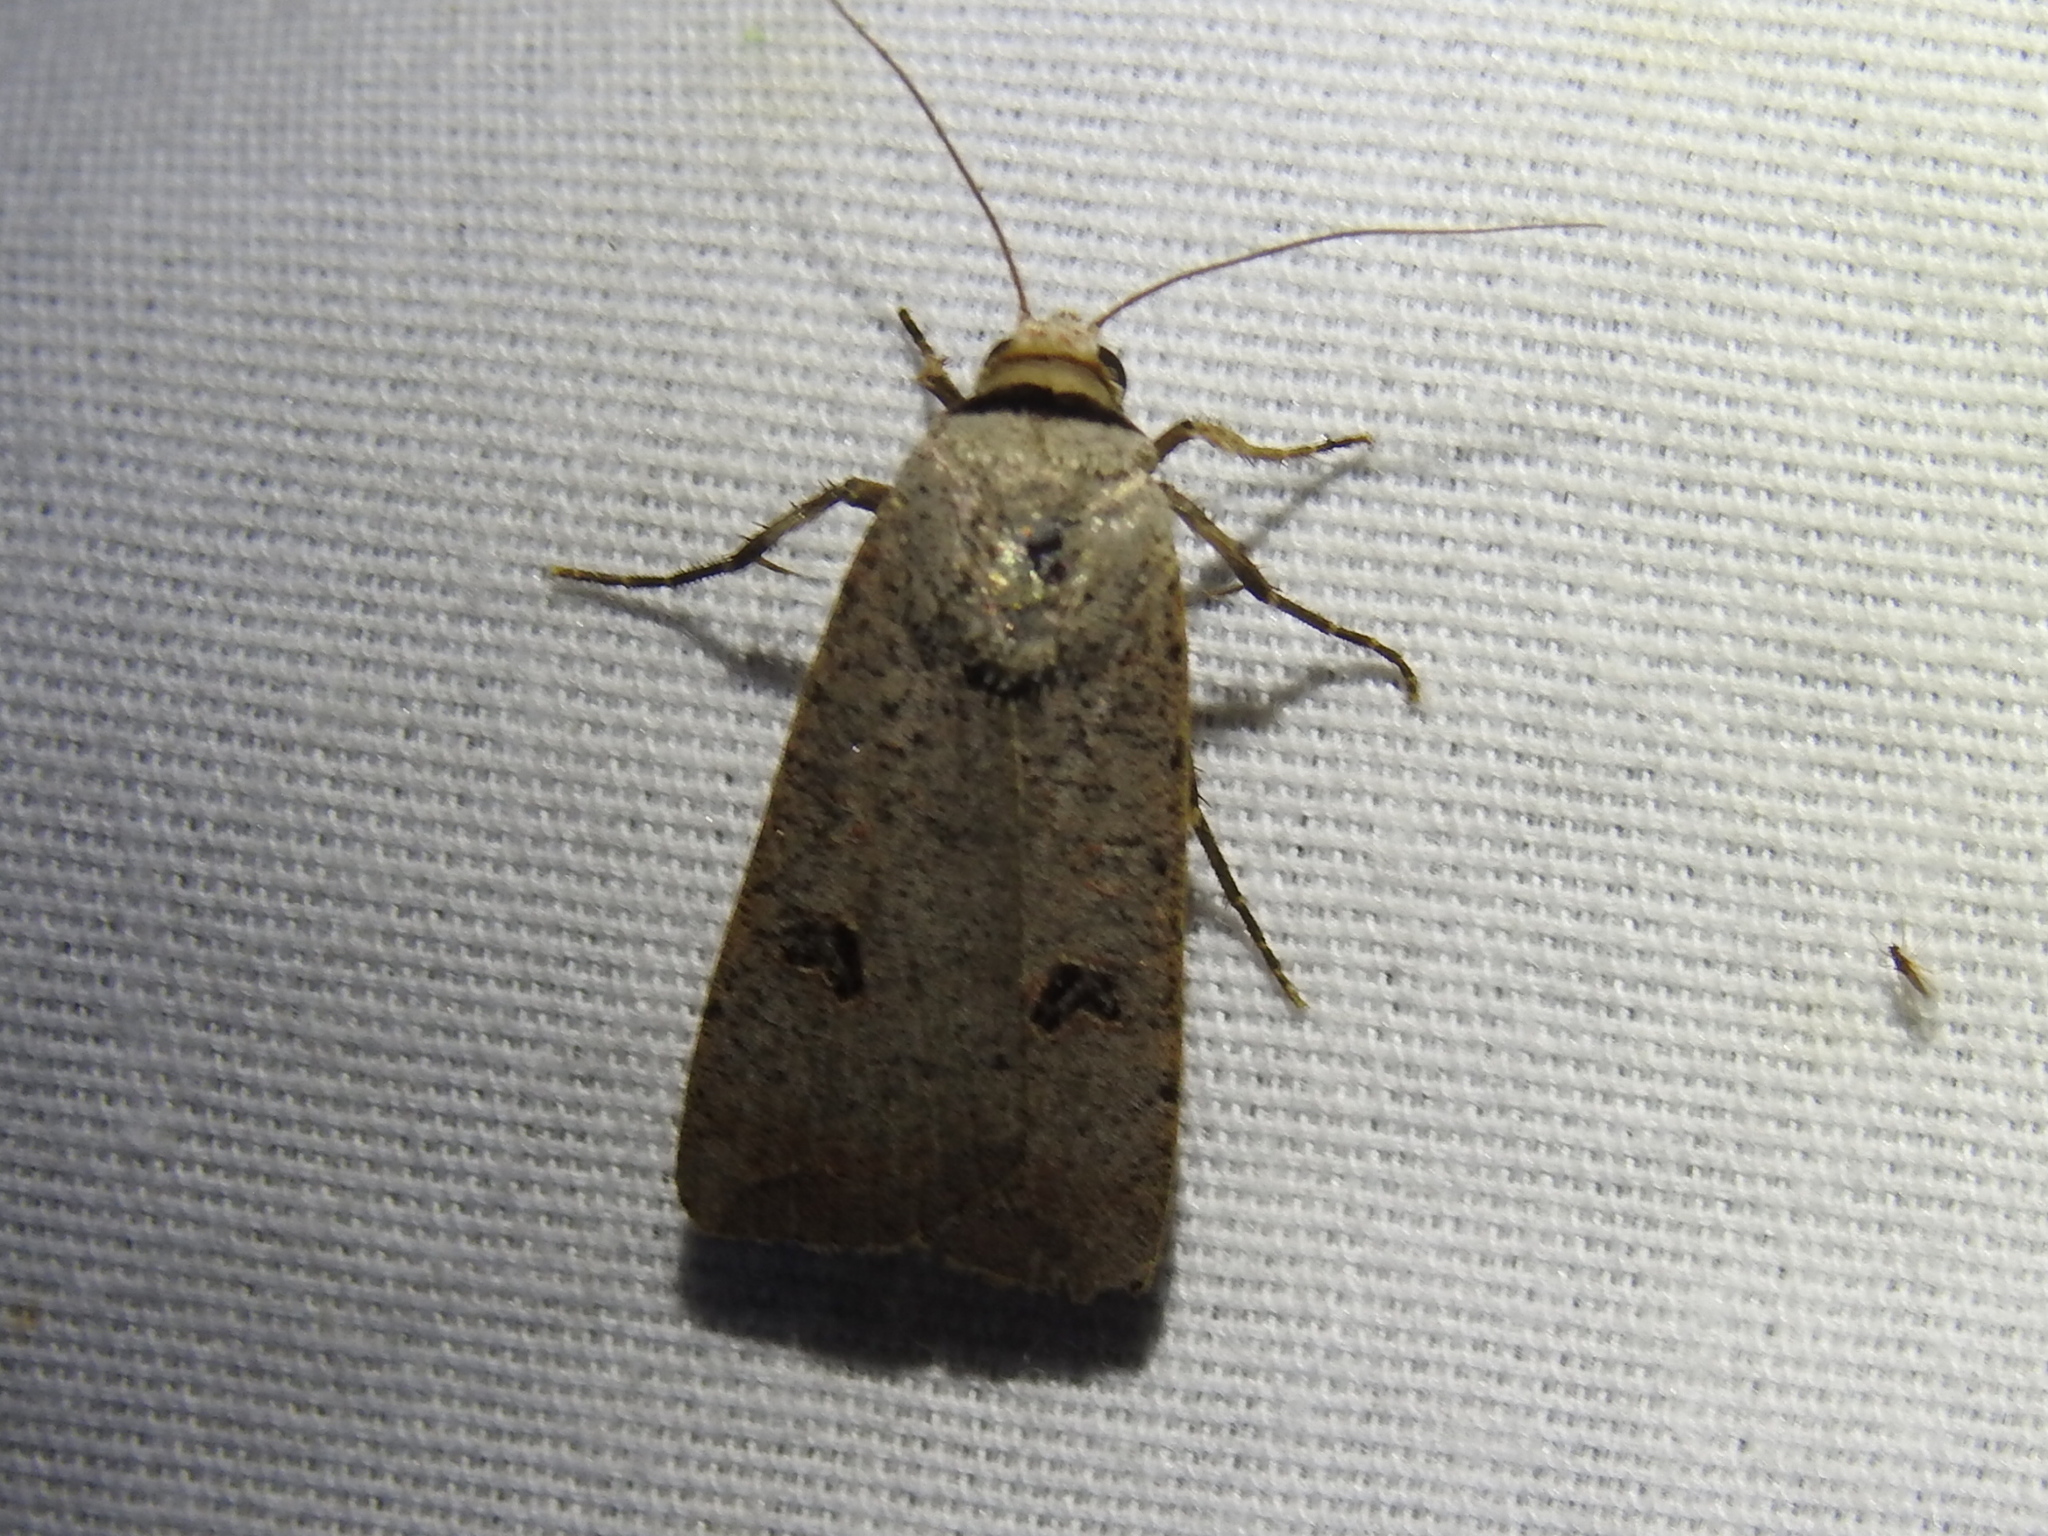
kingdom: Animalia
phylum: Arthropoda
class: Insecta
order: Lepidoptera
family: Noctuidae
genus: Anicla
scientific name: Anicla infecta
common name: Green cutworm
